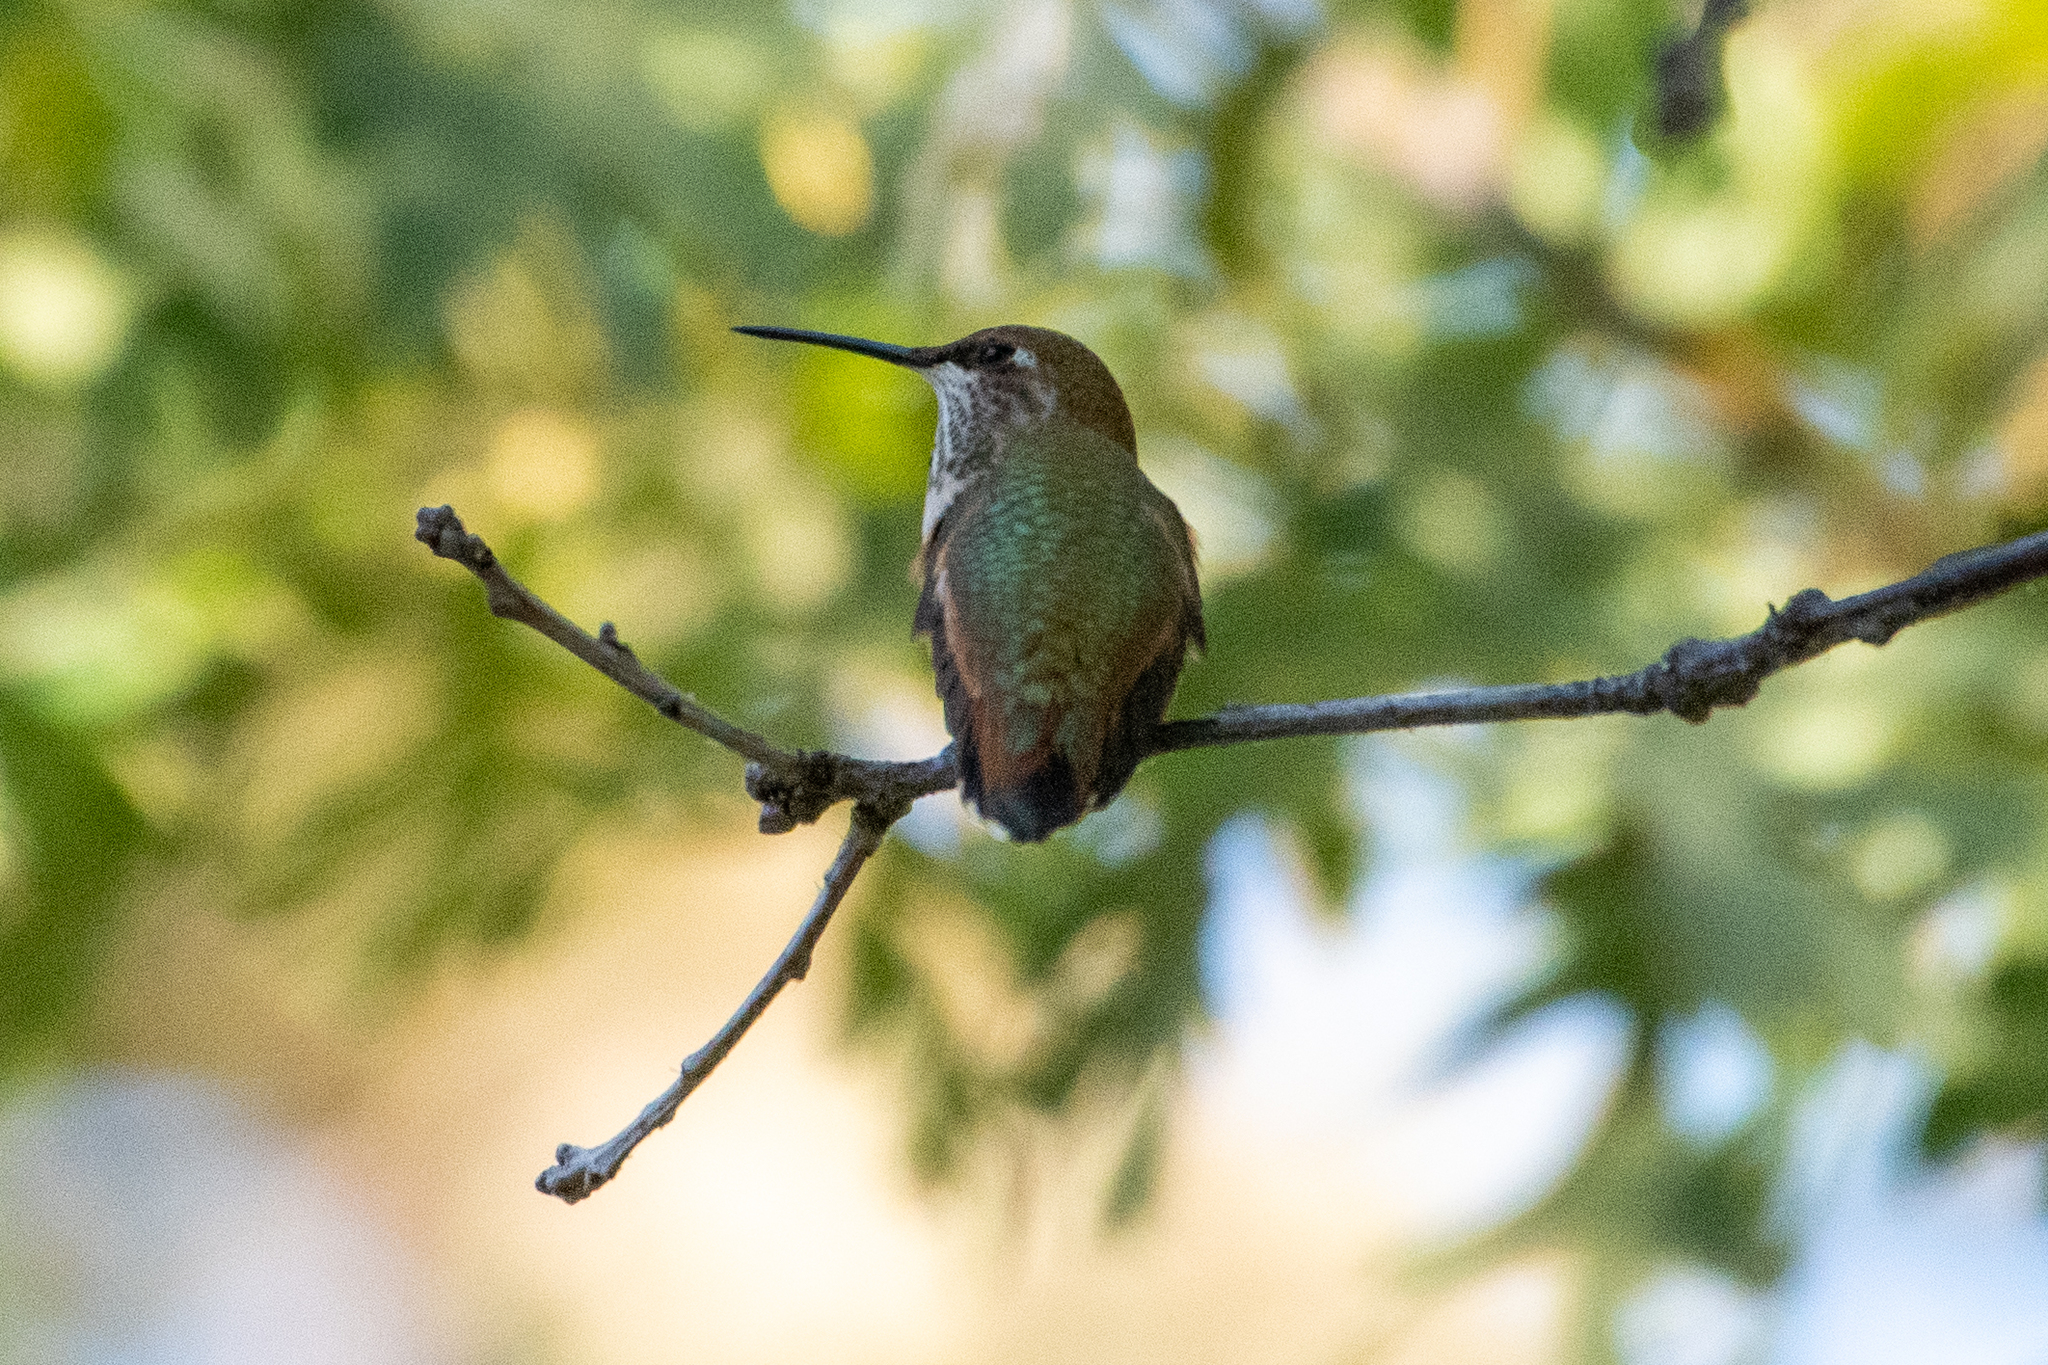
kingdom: Animalia
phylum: Chordata
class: Aves
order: Apodiformes
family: Trochilidae
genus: Selasphorus
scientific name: Selasphorus
